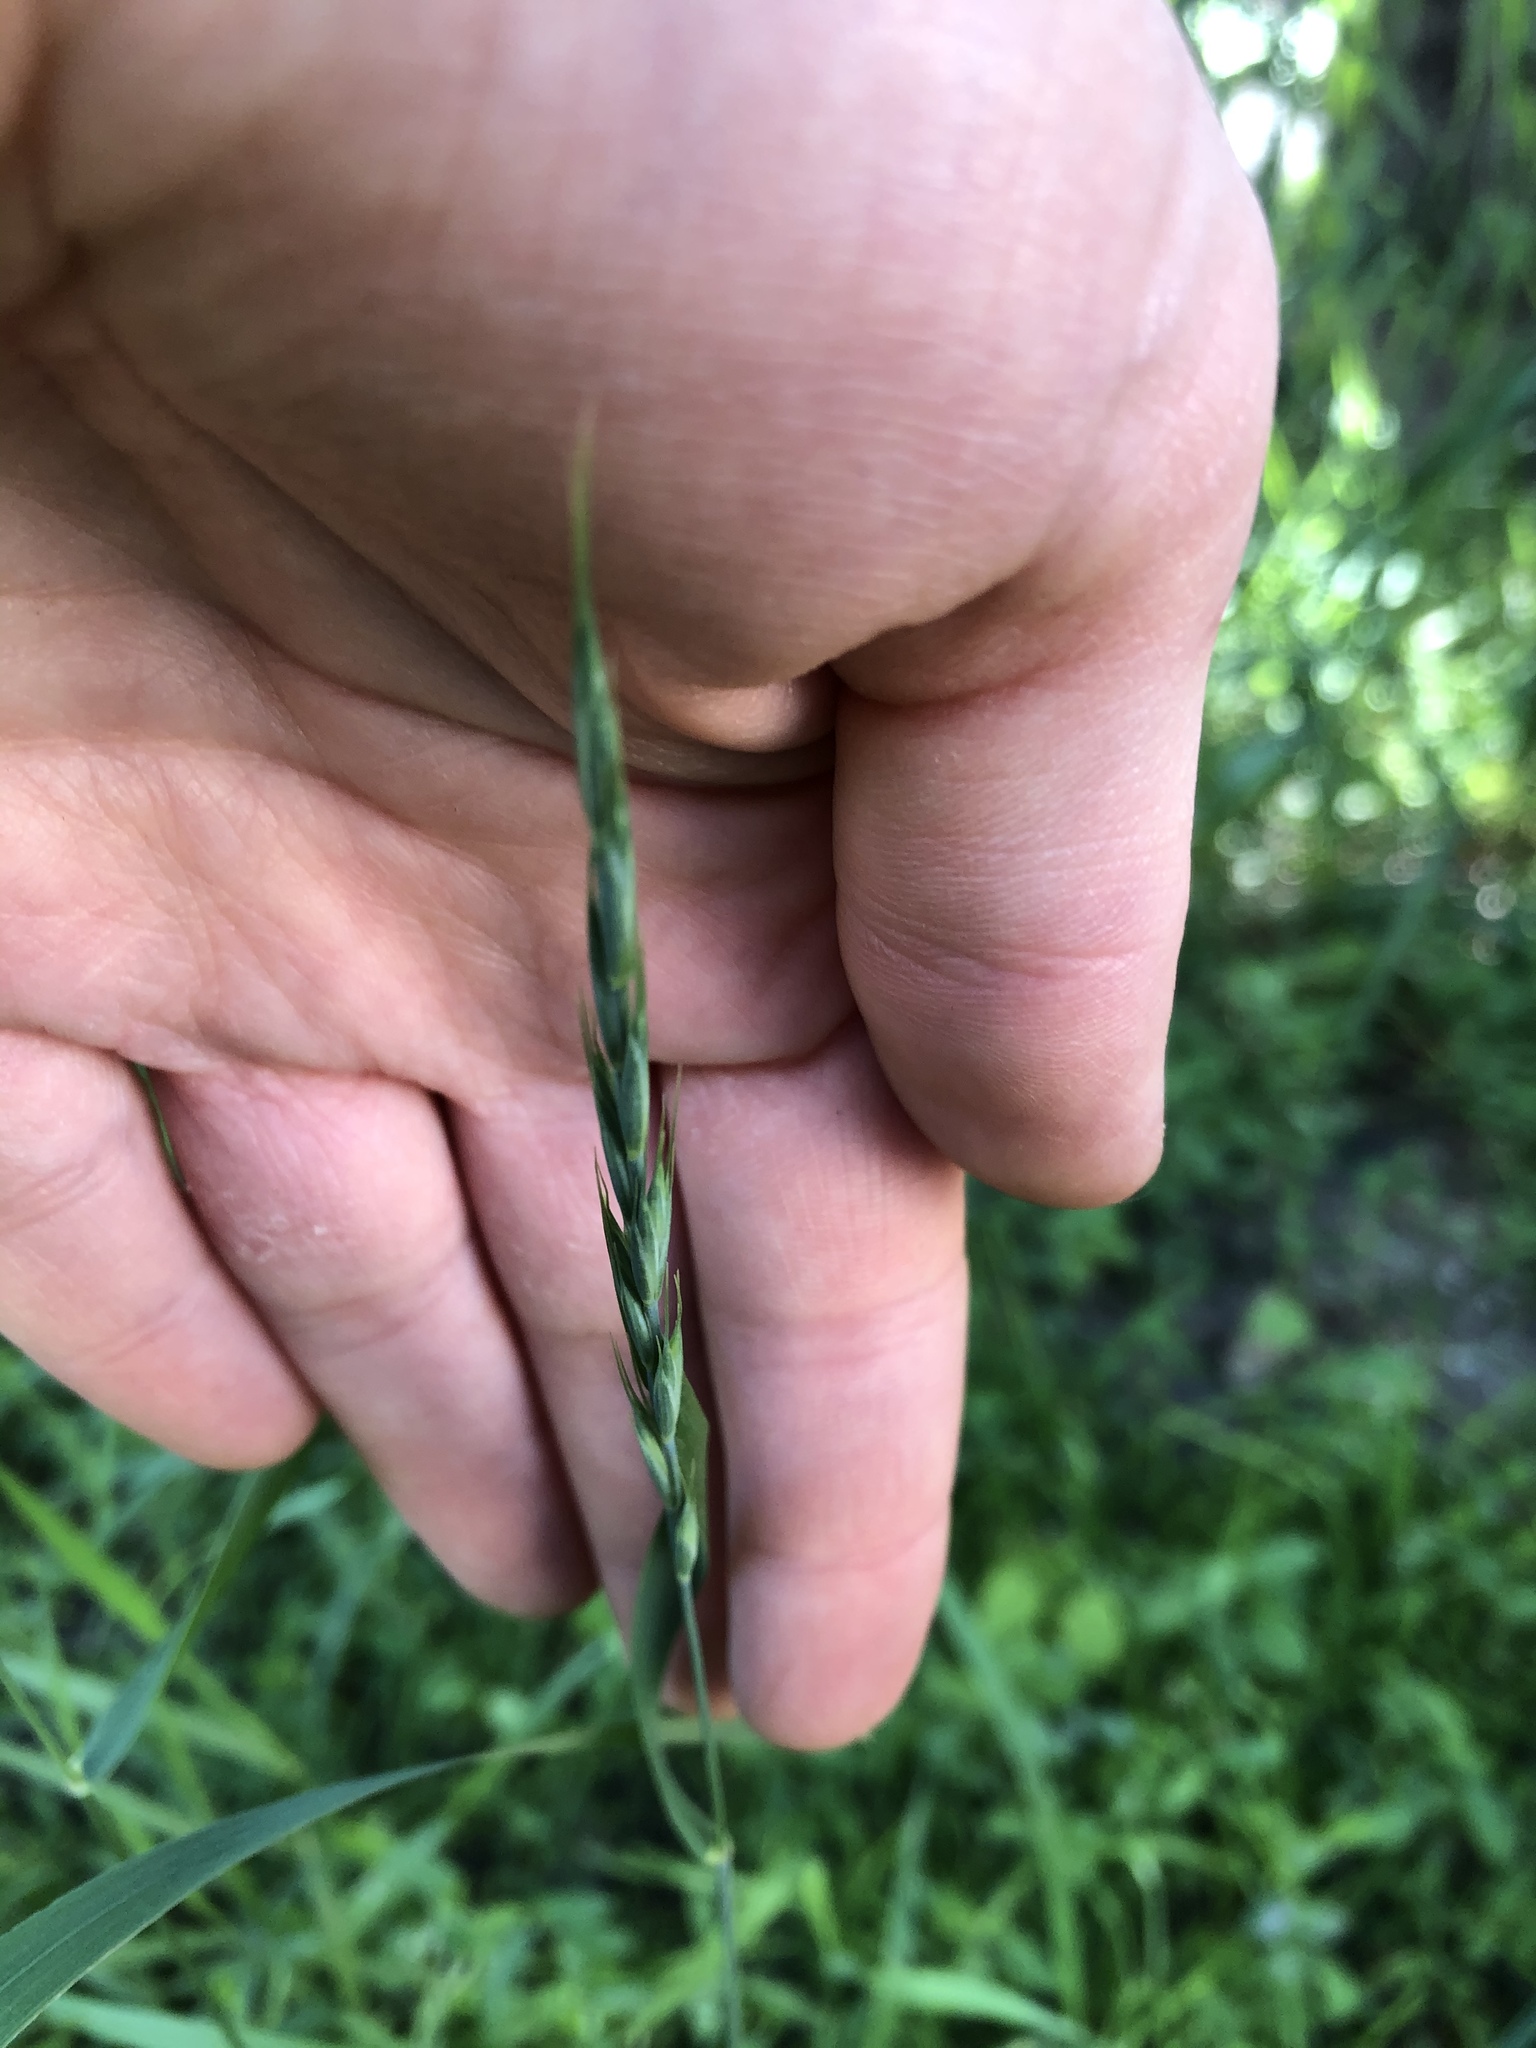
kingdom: Plantae
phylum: Tracheophyta
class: Liliopsida
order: Poales
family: Poaceae
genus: Elymus
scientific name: Elymus repens
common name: Quackgrass
